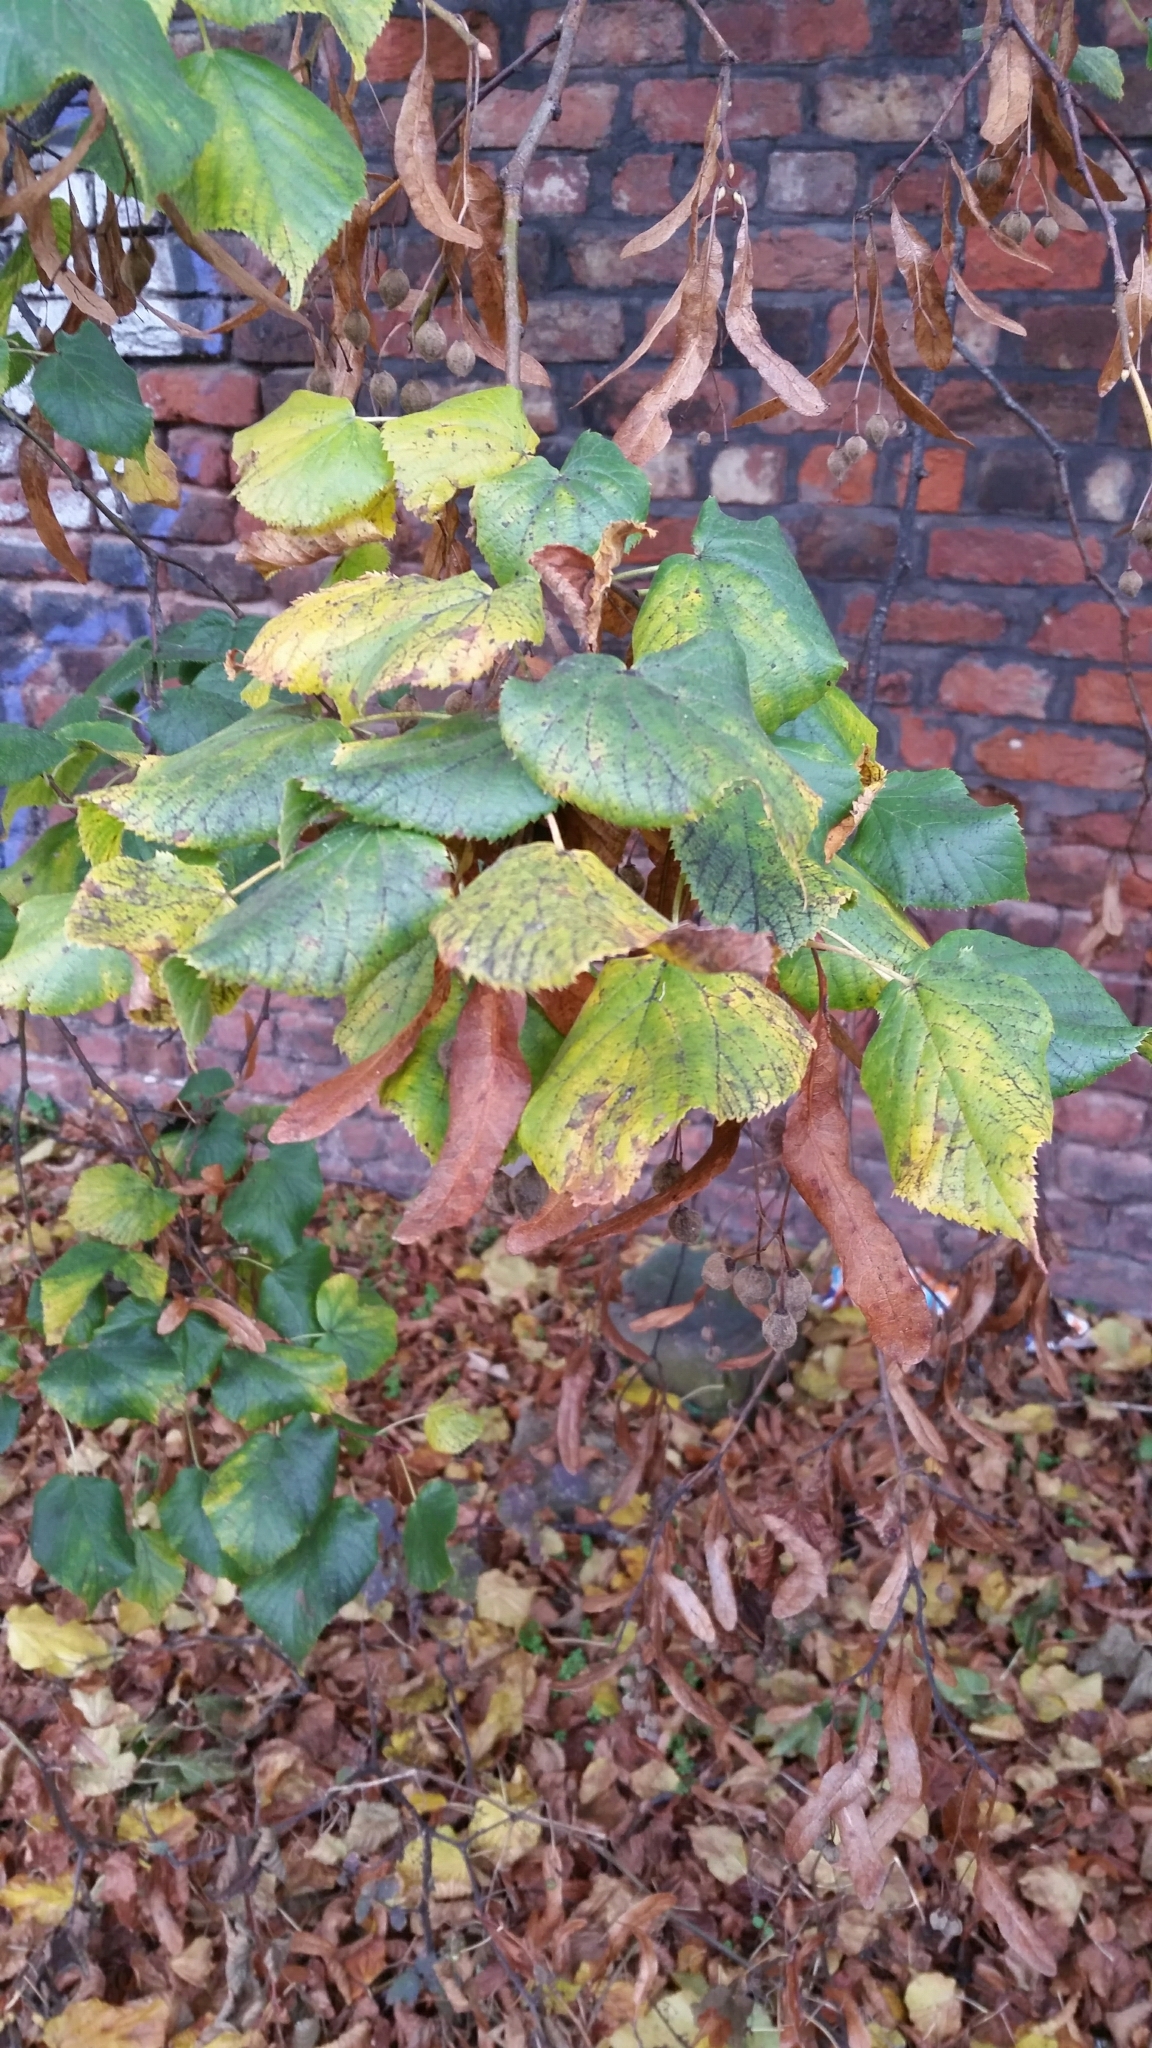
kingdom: Plantae
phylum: Tracheophyta
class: Magnoliopsida
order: Malvales
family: Malvaceae
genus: Tilia
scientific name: Tilia europaea
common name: European linden
